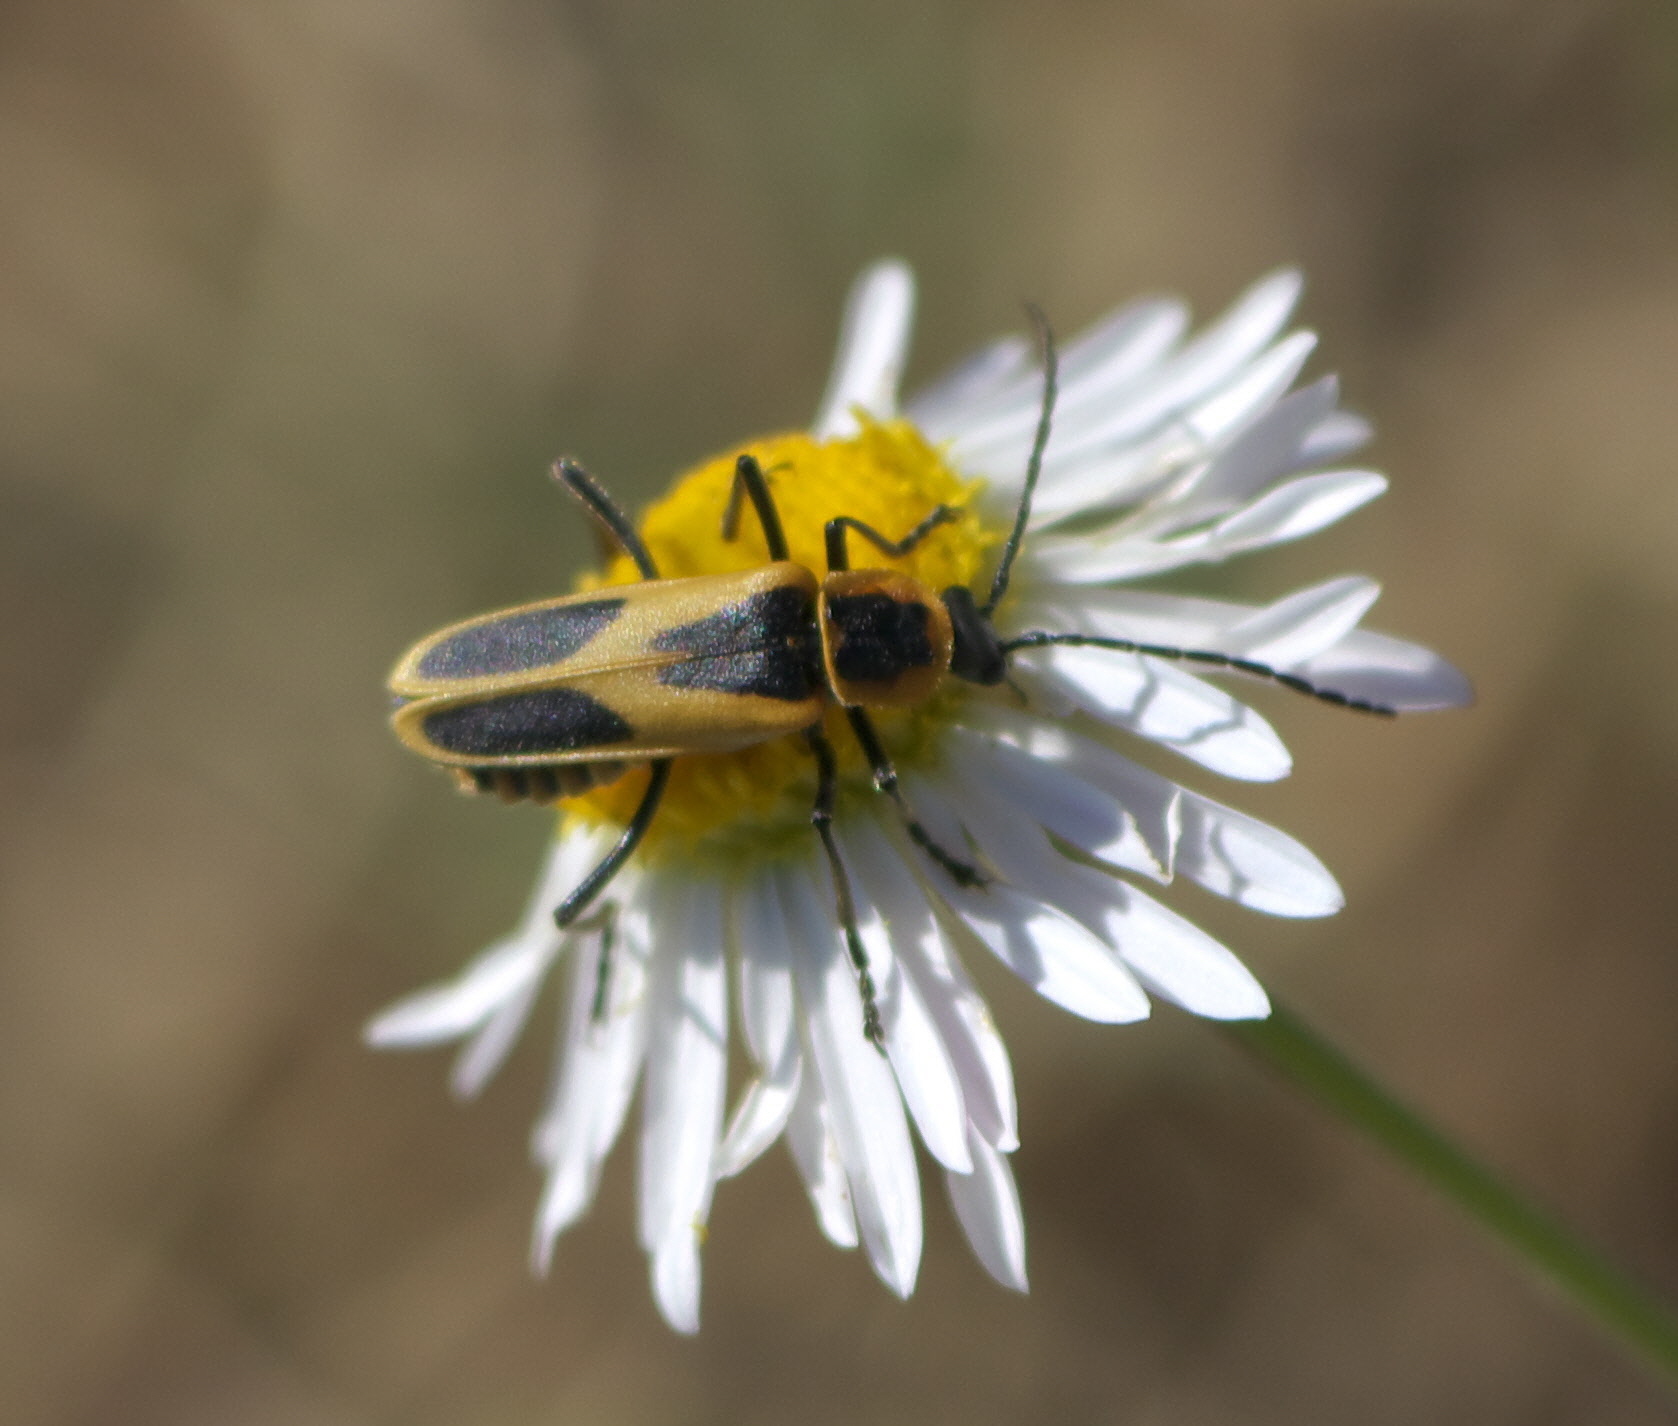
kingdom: Animalia
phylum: Arthropoda
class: Insecta
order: Coleoptera
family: Cantharidae
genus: Chauliognathus
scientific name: Chauliognathus scutellaris
